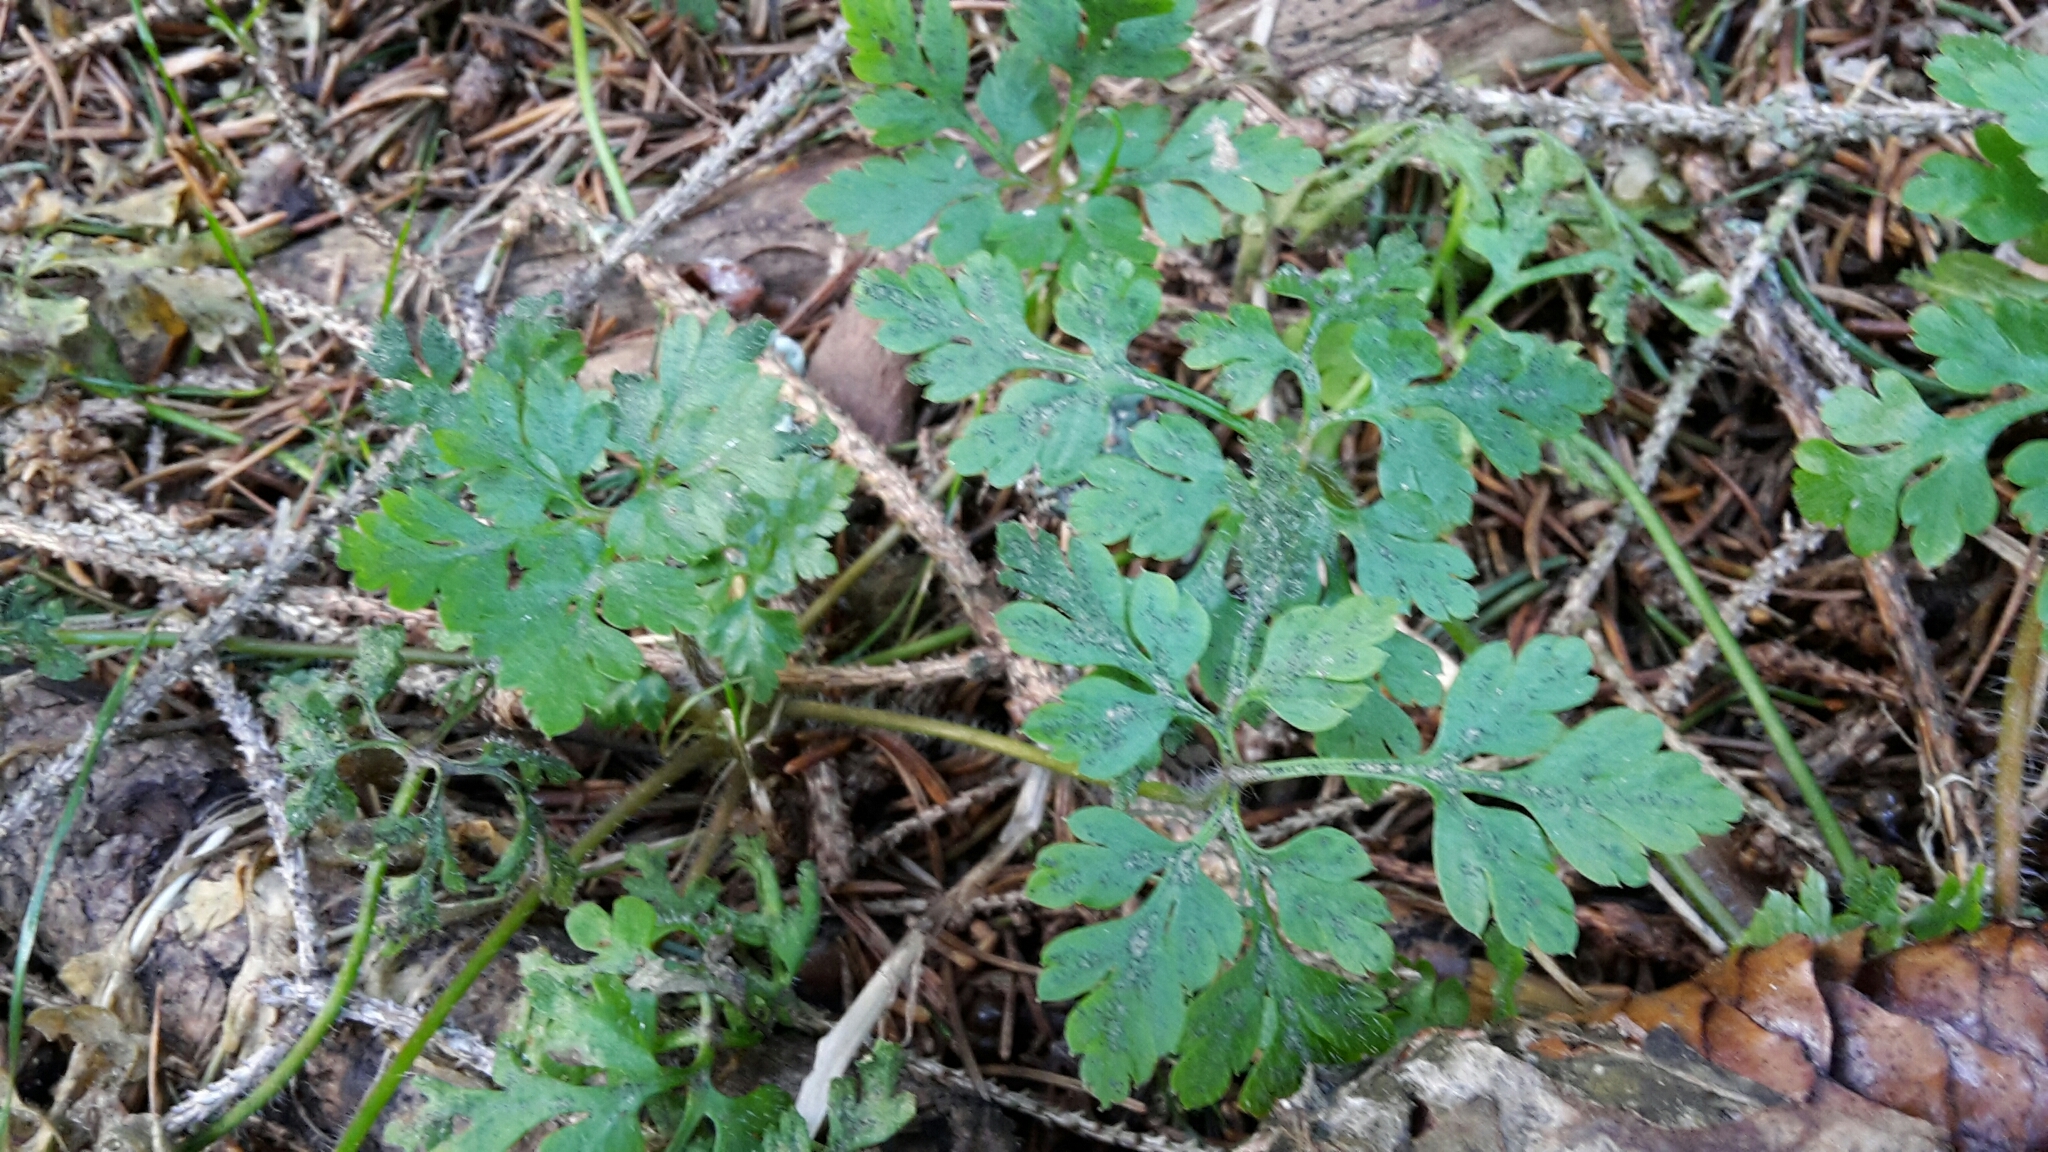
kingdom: Plantae
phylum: Tracheophyta
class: Magnoliopsida
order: Geraniales
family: Geraniaceae
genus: Geranium
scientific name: Geranium robertianum
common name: Herb-robert
